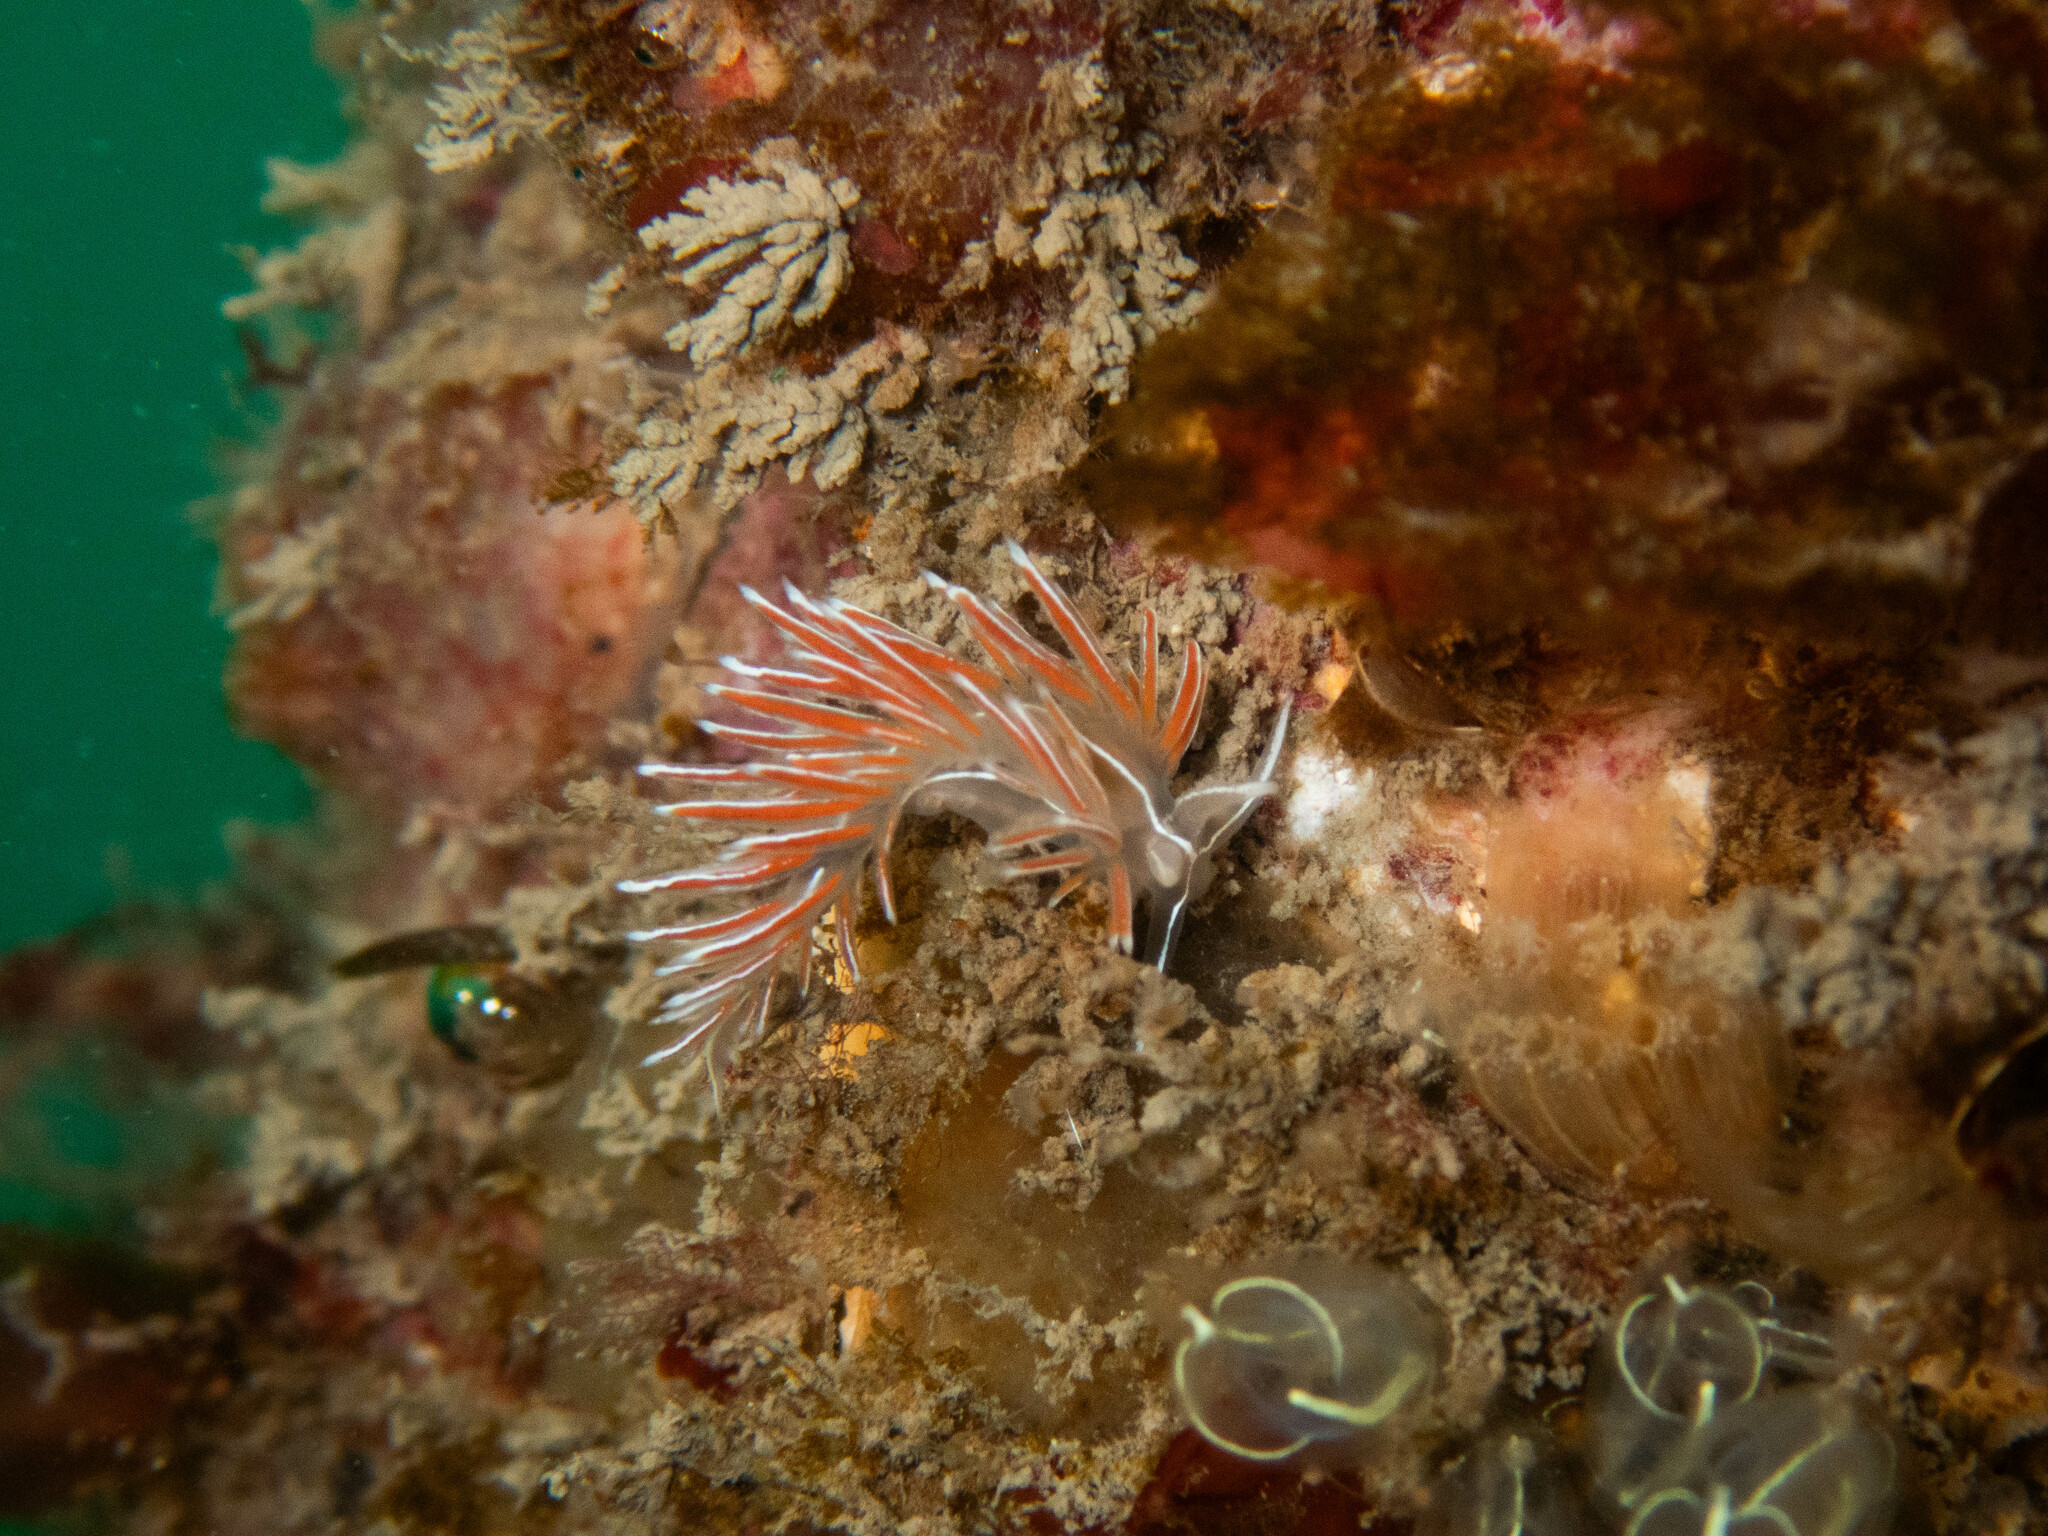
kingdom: Animalia
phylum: Mollusca
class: Gastropoda
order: Nudibranchia
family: Coryphellidae
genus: Coryphella
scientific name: Coryphella lineata
